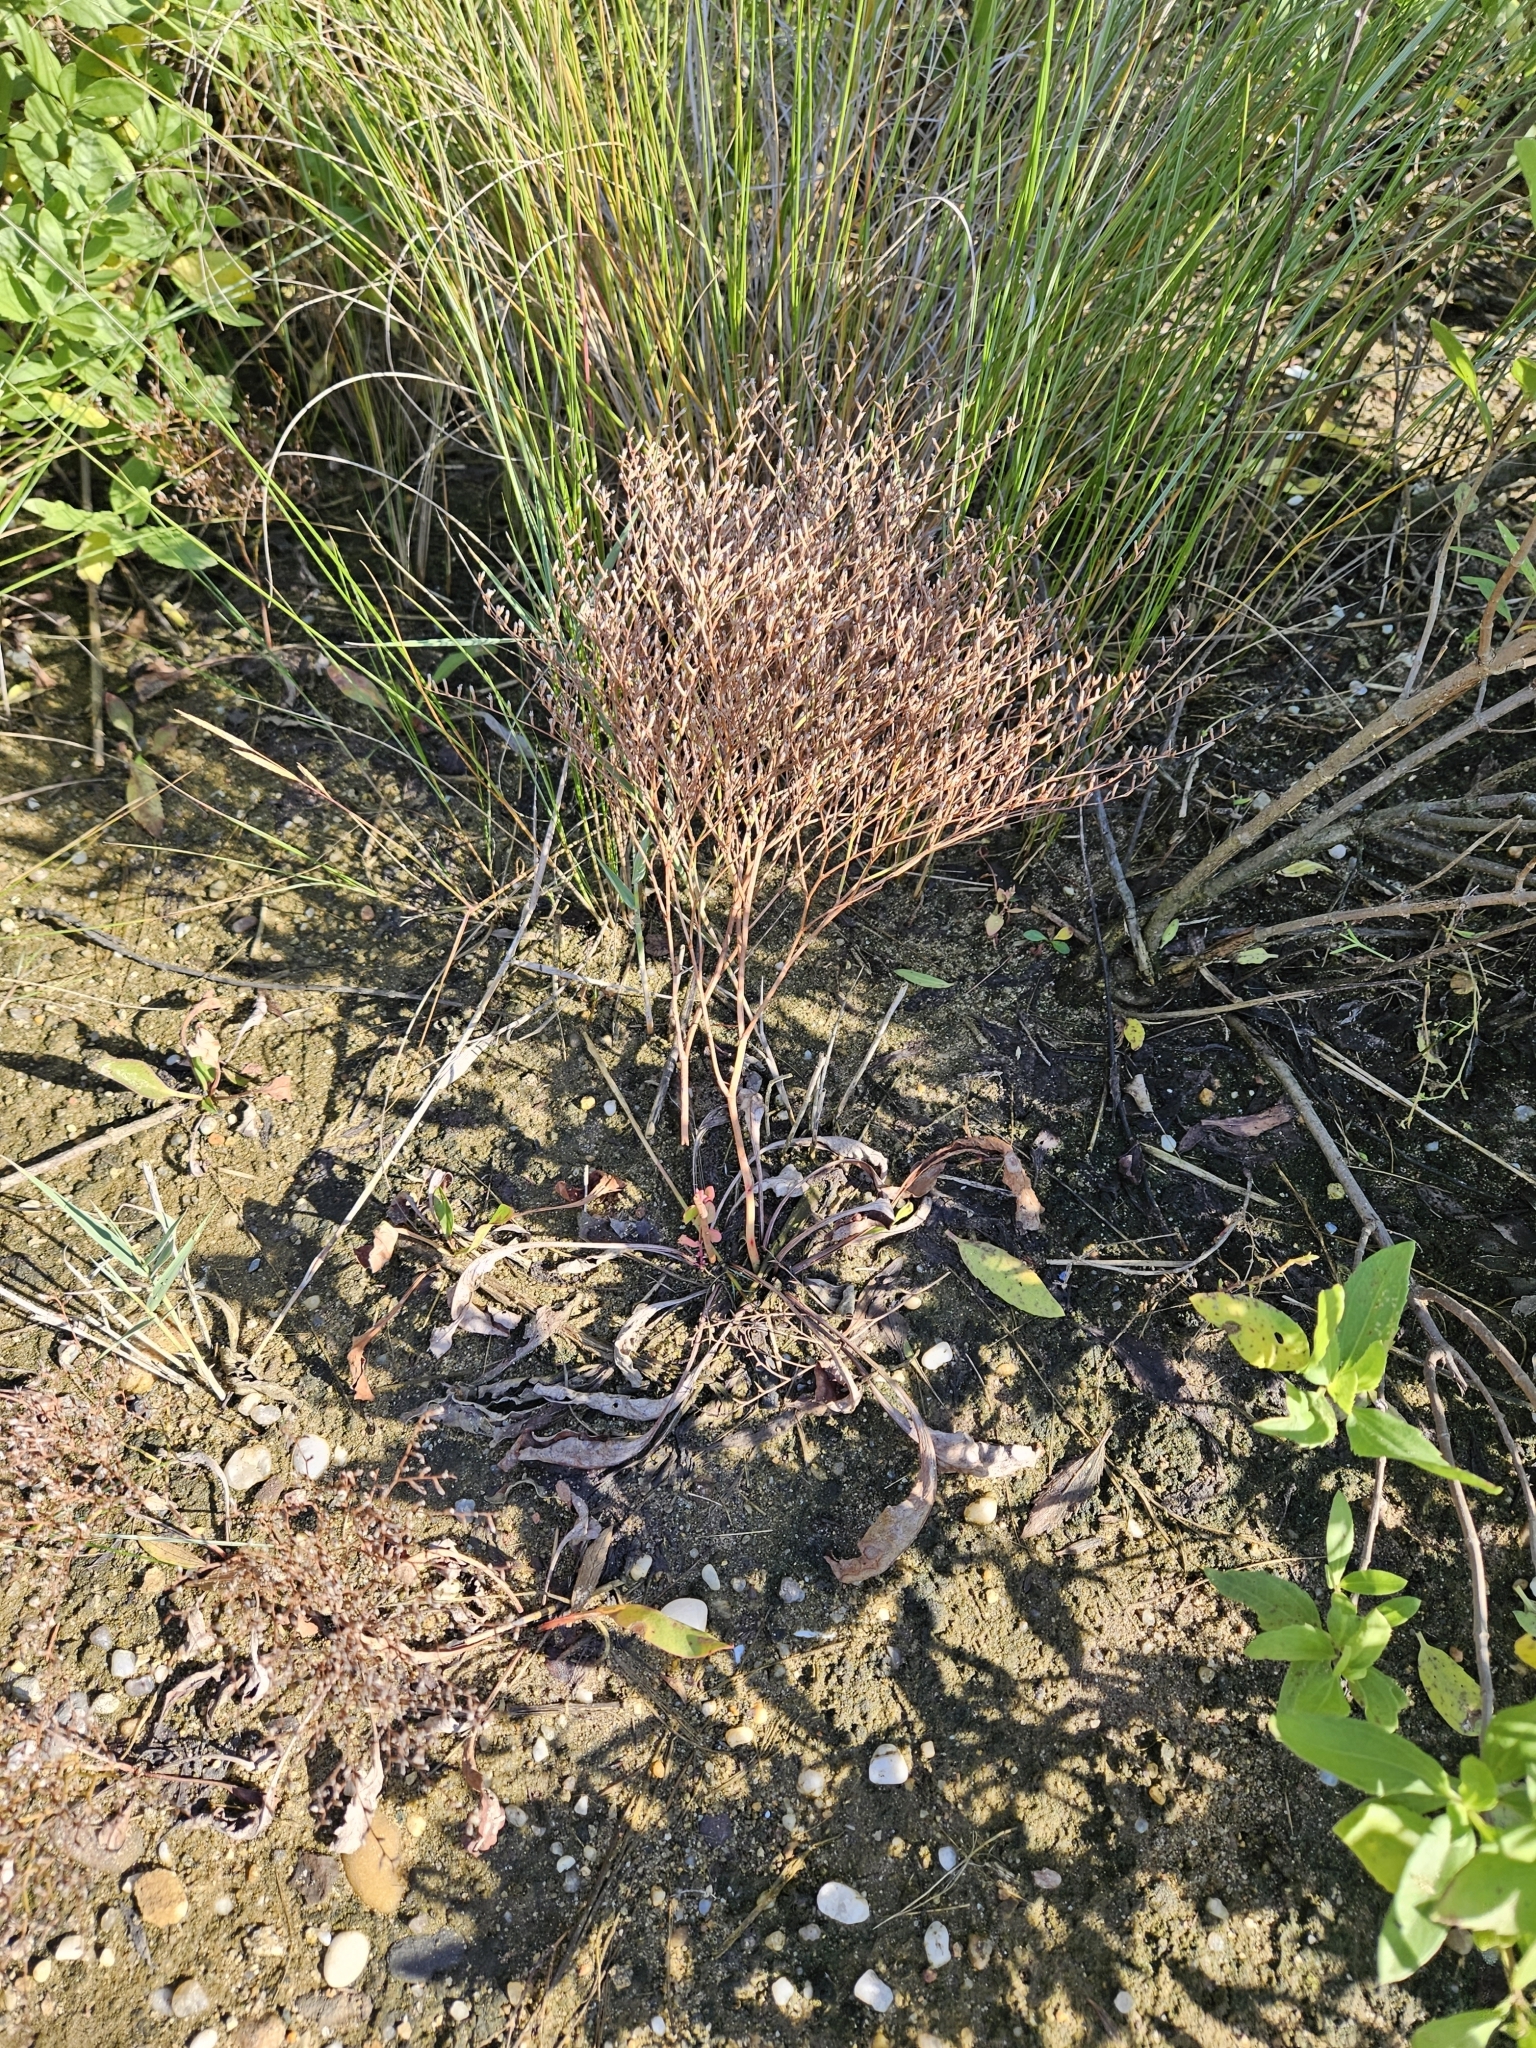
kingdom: Plantae
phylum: Tracheophyta
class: Magnoliopsida
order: Caryophyllales
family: Plumbaginaceae
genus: Limonium
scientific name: Limonium carolinianum
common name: Carolina sea lavender
